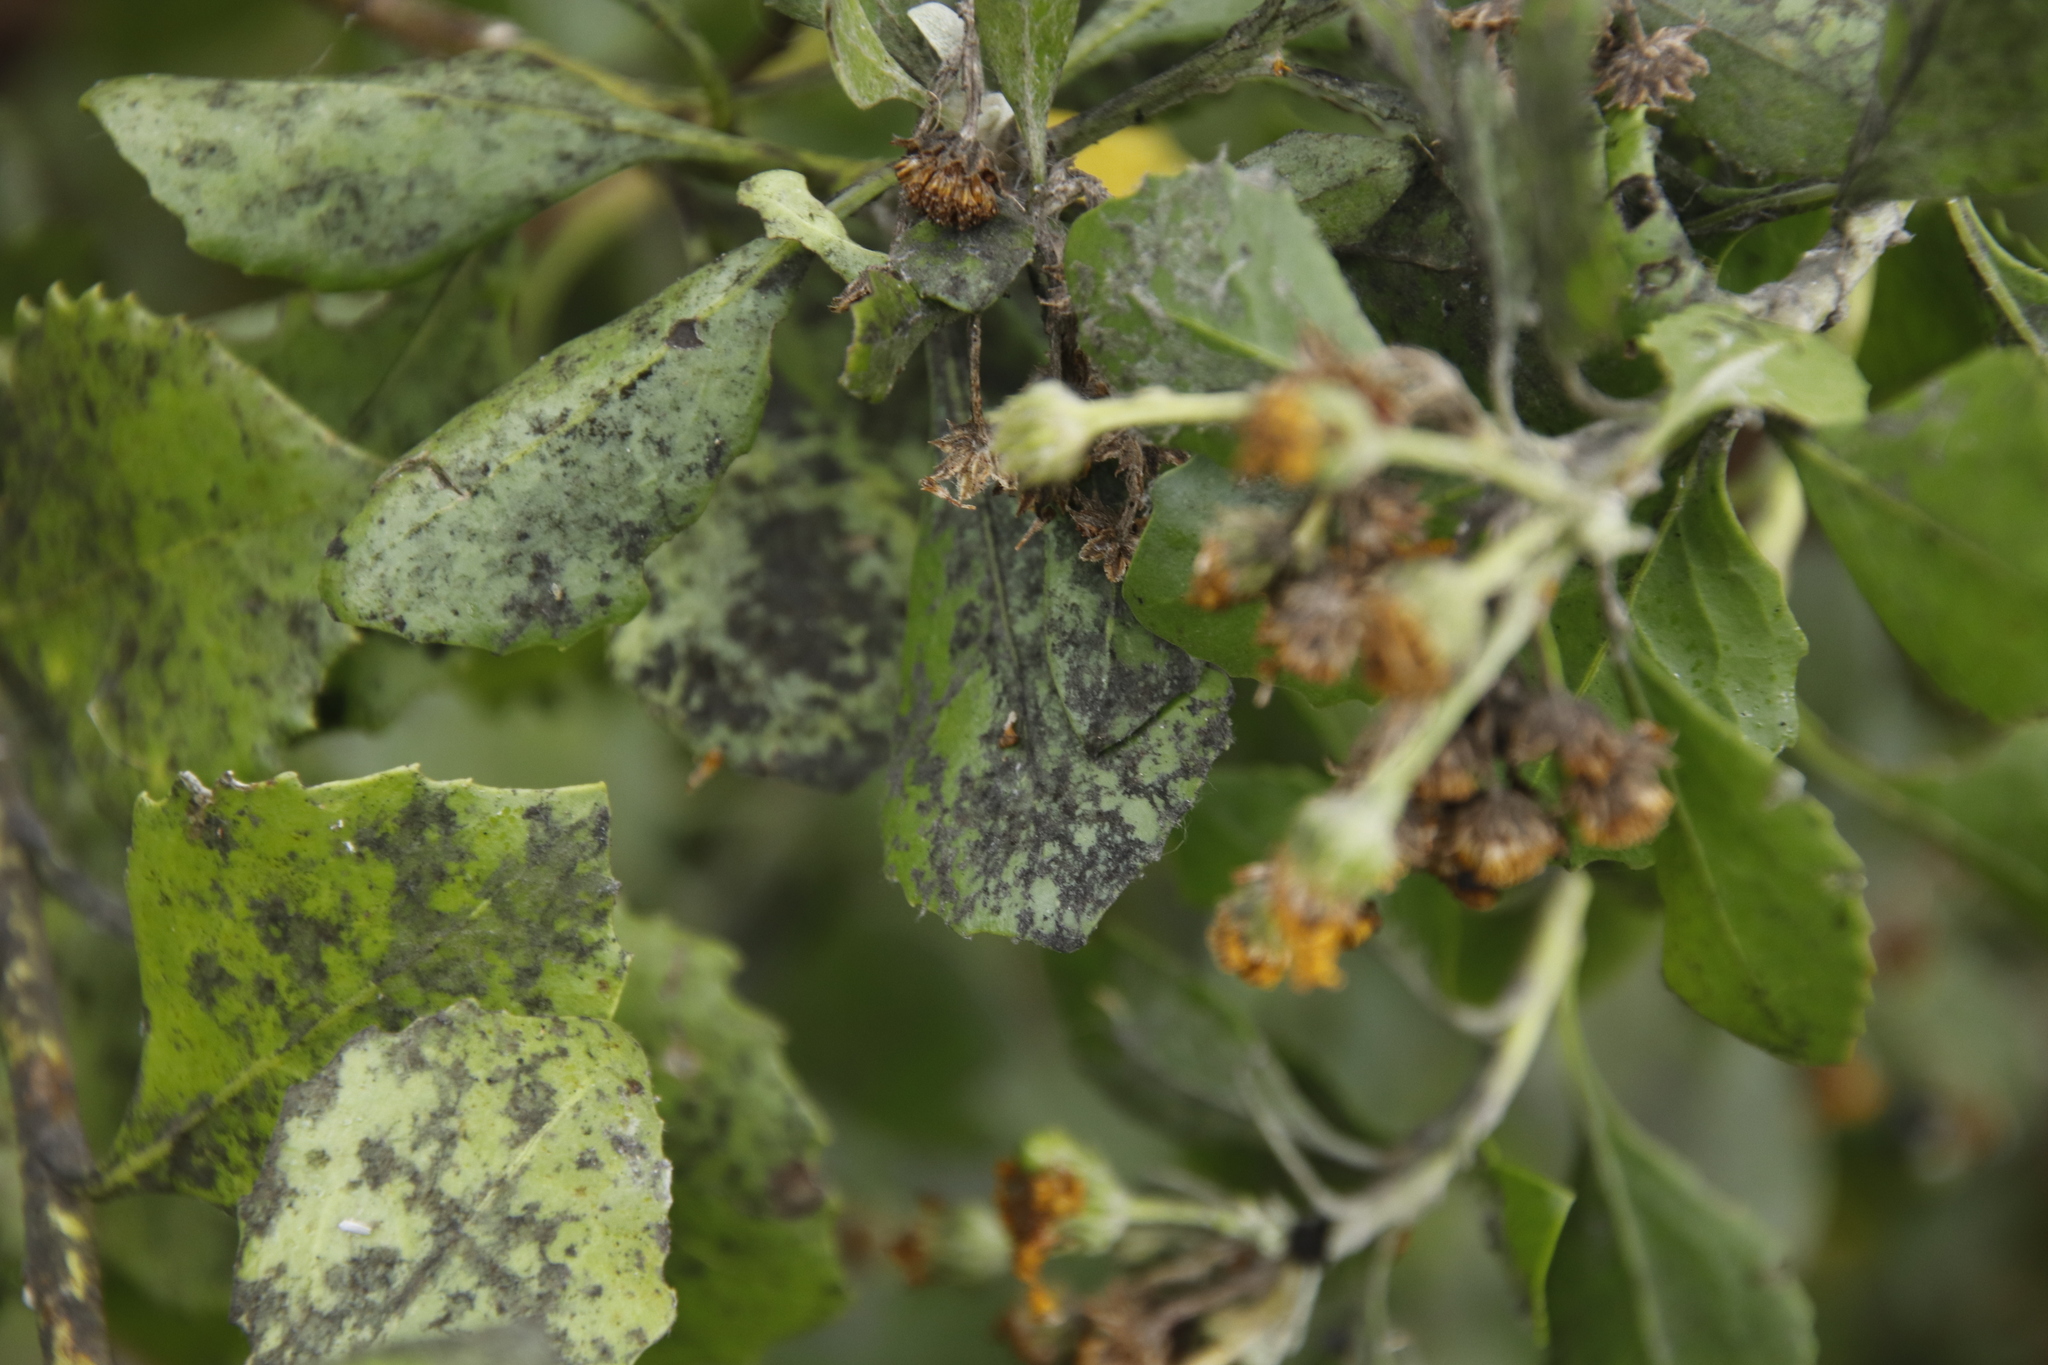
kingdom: Plantae
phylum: Tracheophyta
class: Magnoliopsida
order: Asterales
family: Asteraceae
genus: Osteospermum
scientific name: Osteospermum moniliferum
